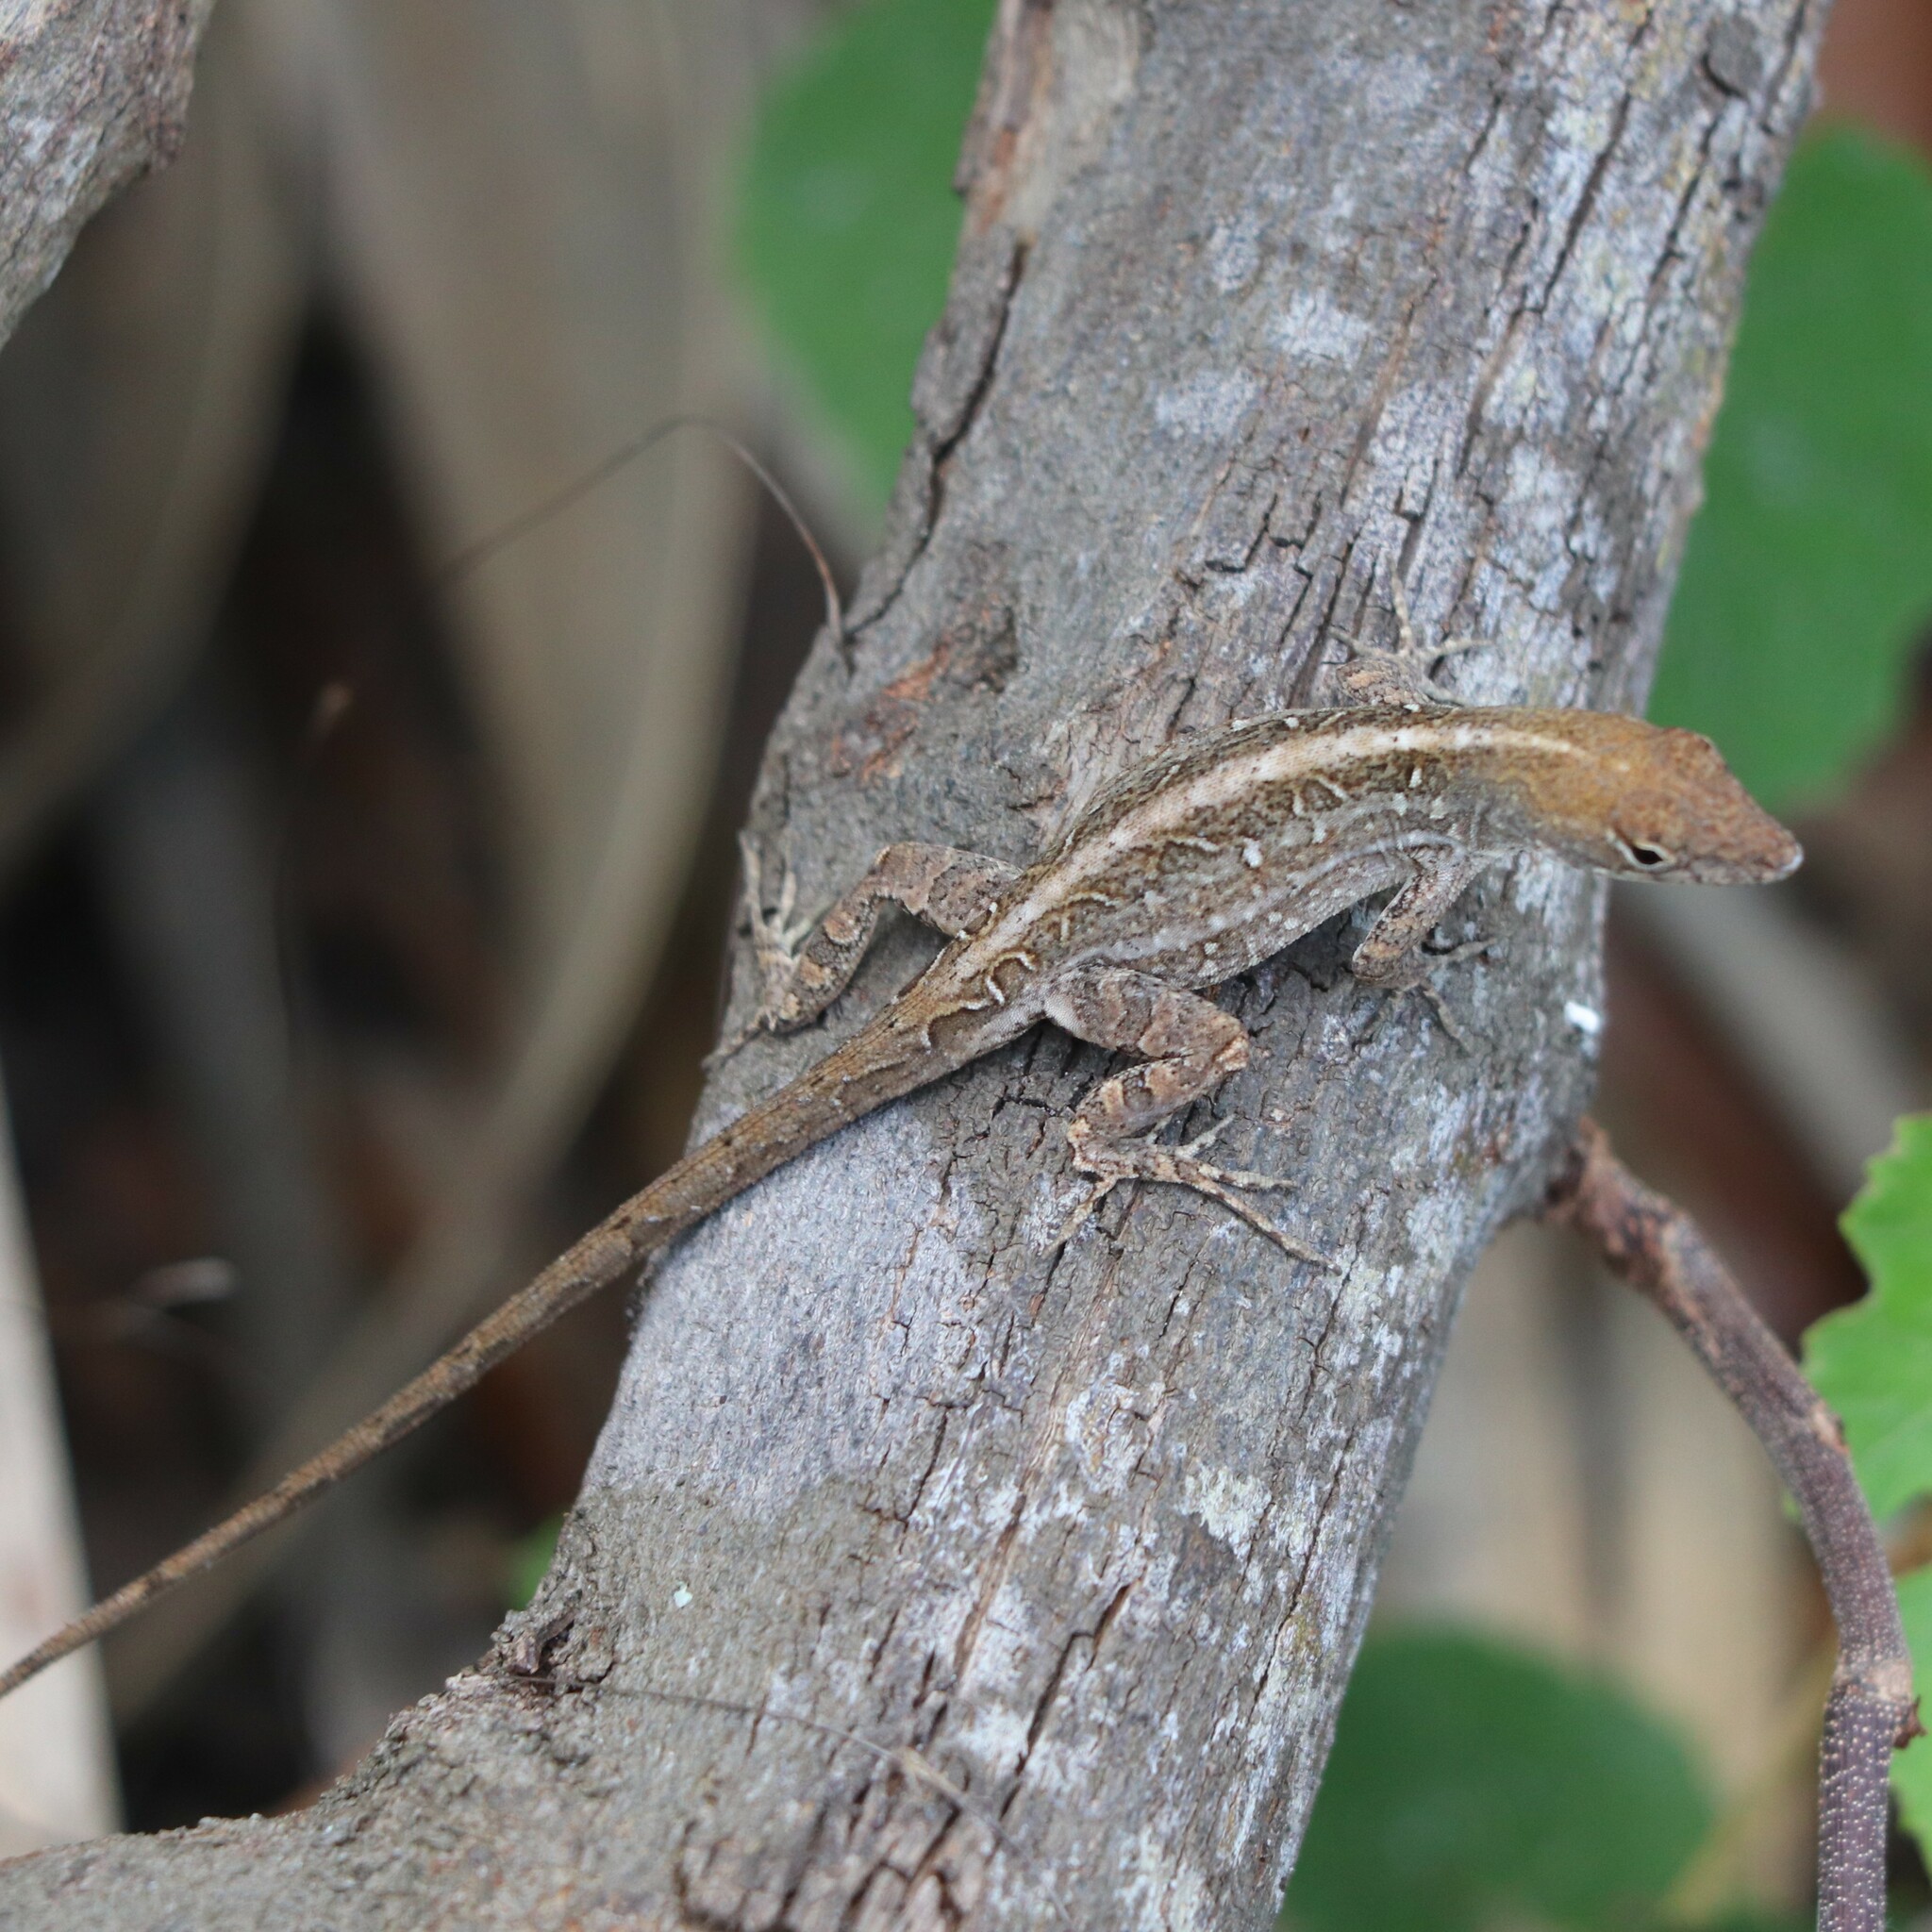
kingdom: Animalia
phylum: Chordata
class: Squamata
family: Dactyloidae
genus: Anolis
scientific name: Anolis sagrei
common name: Brown anole
